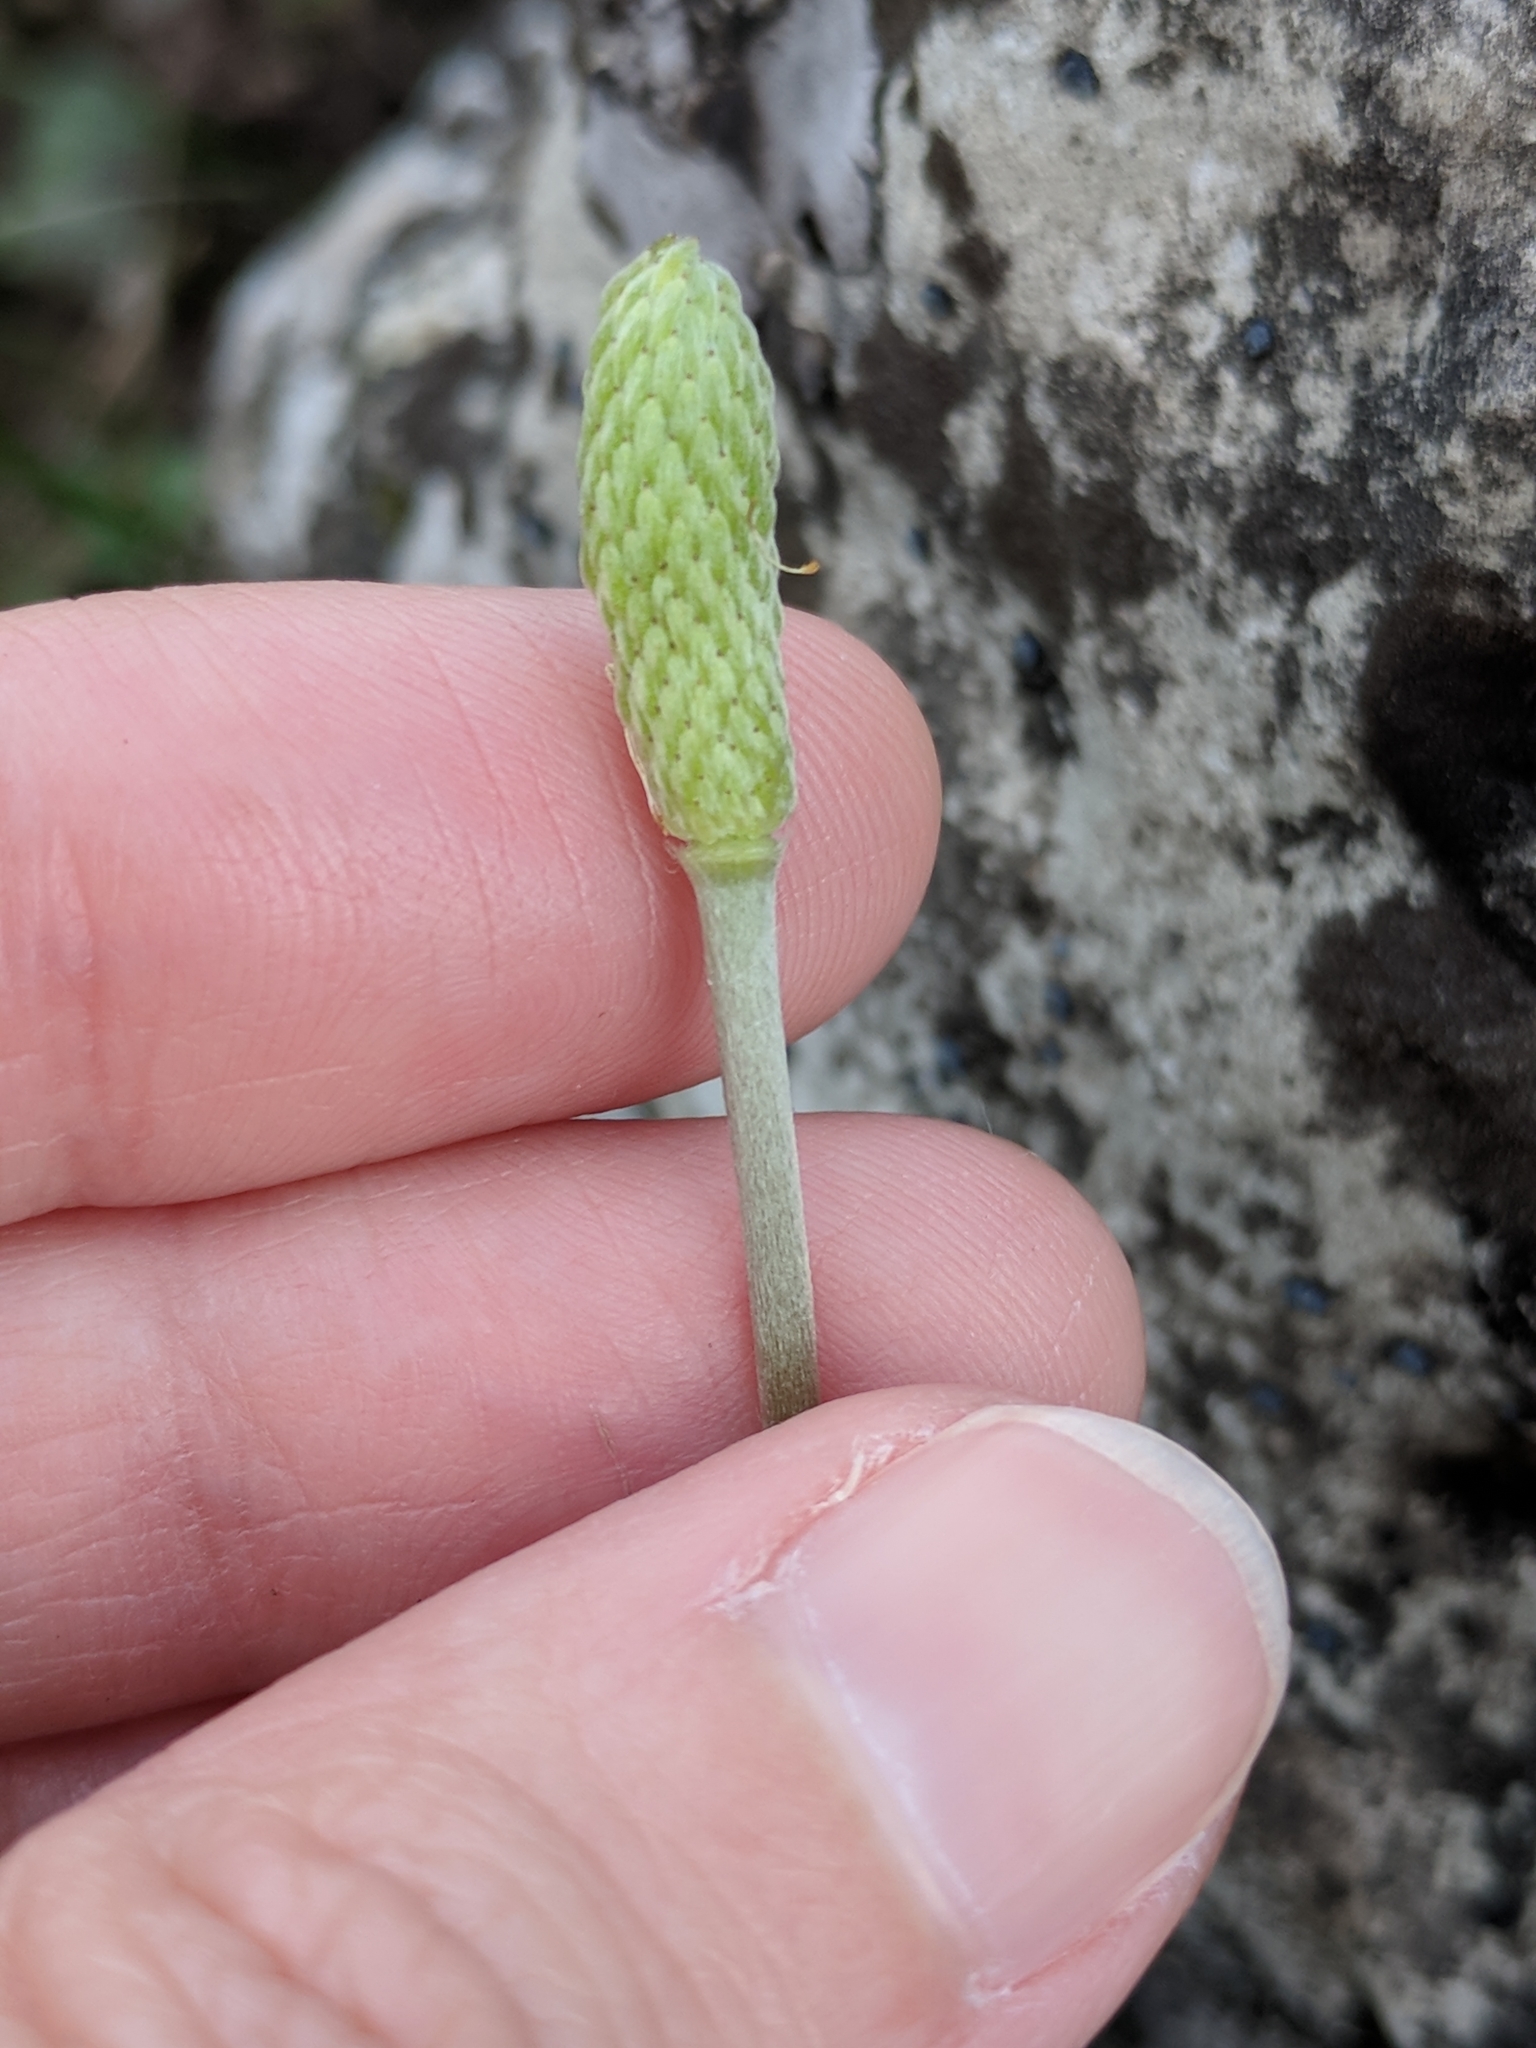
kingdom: Plantae
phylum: Tracheophyta
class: Magnoliopsida
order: Ranunculales
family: Ranunculaceae
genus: Anemone
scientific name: Anemone berlandieri
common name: Ten-petal anemone
